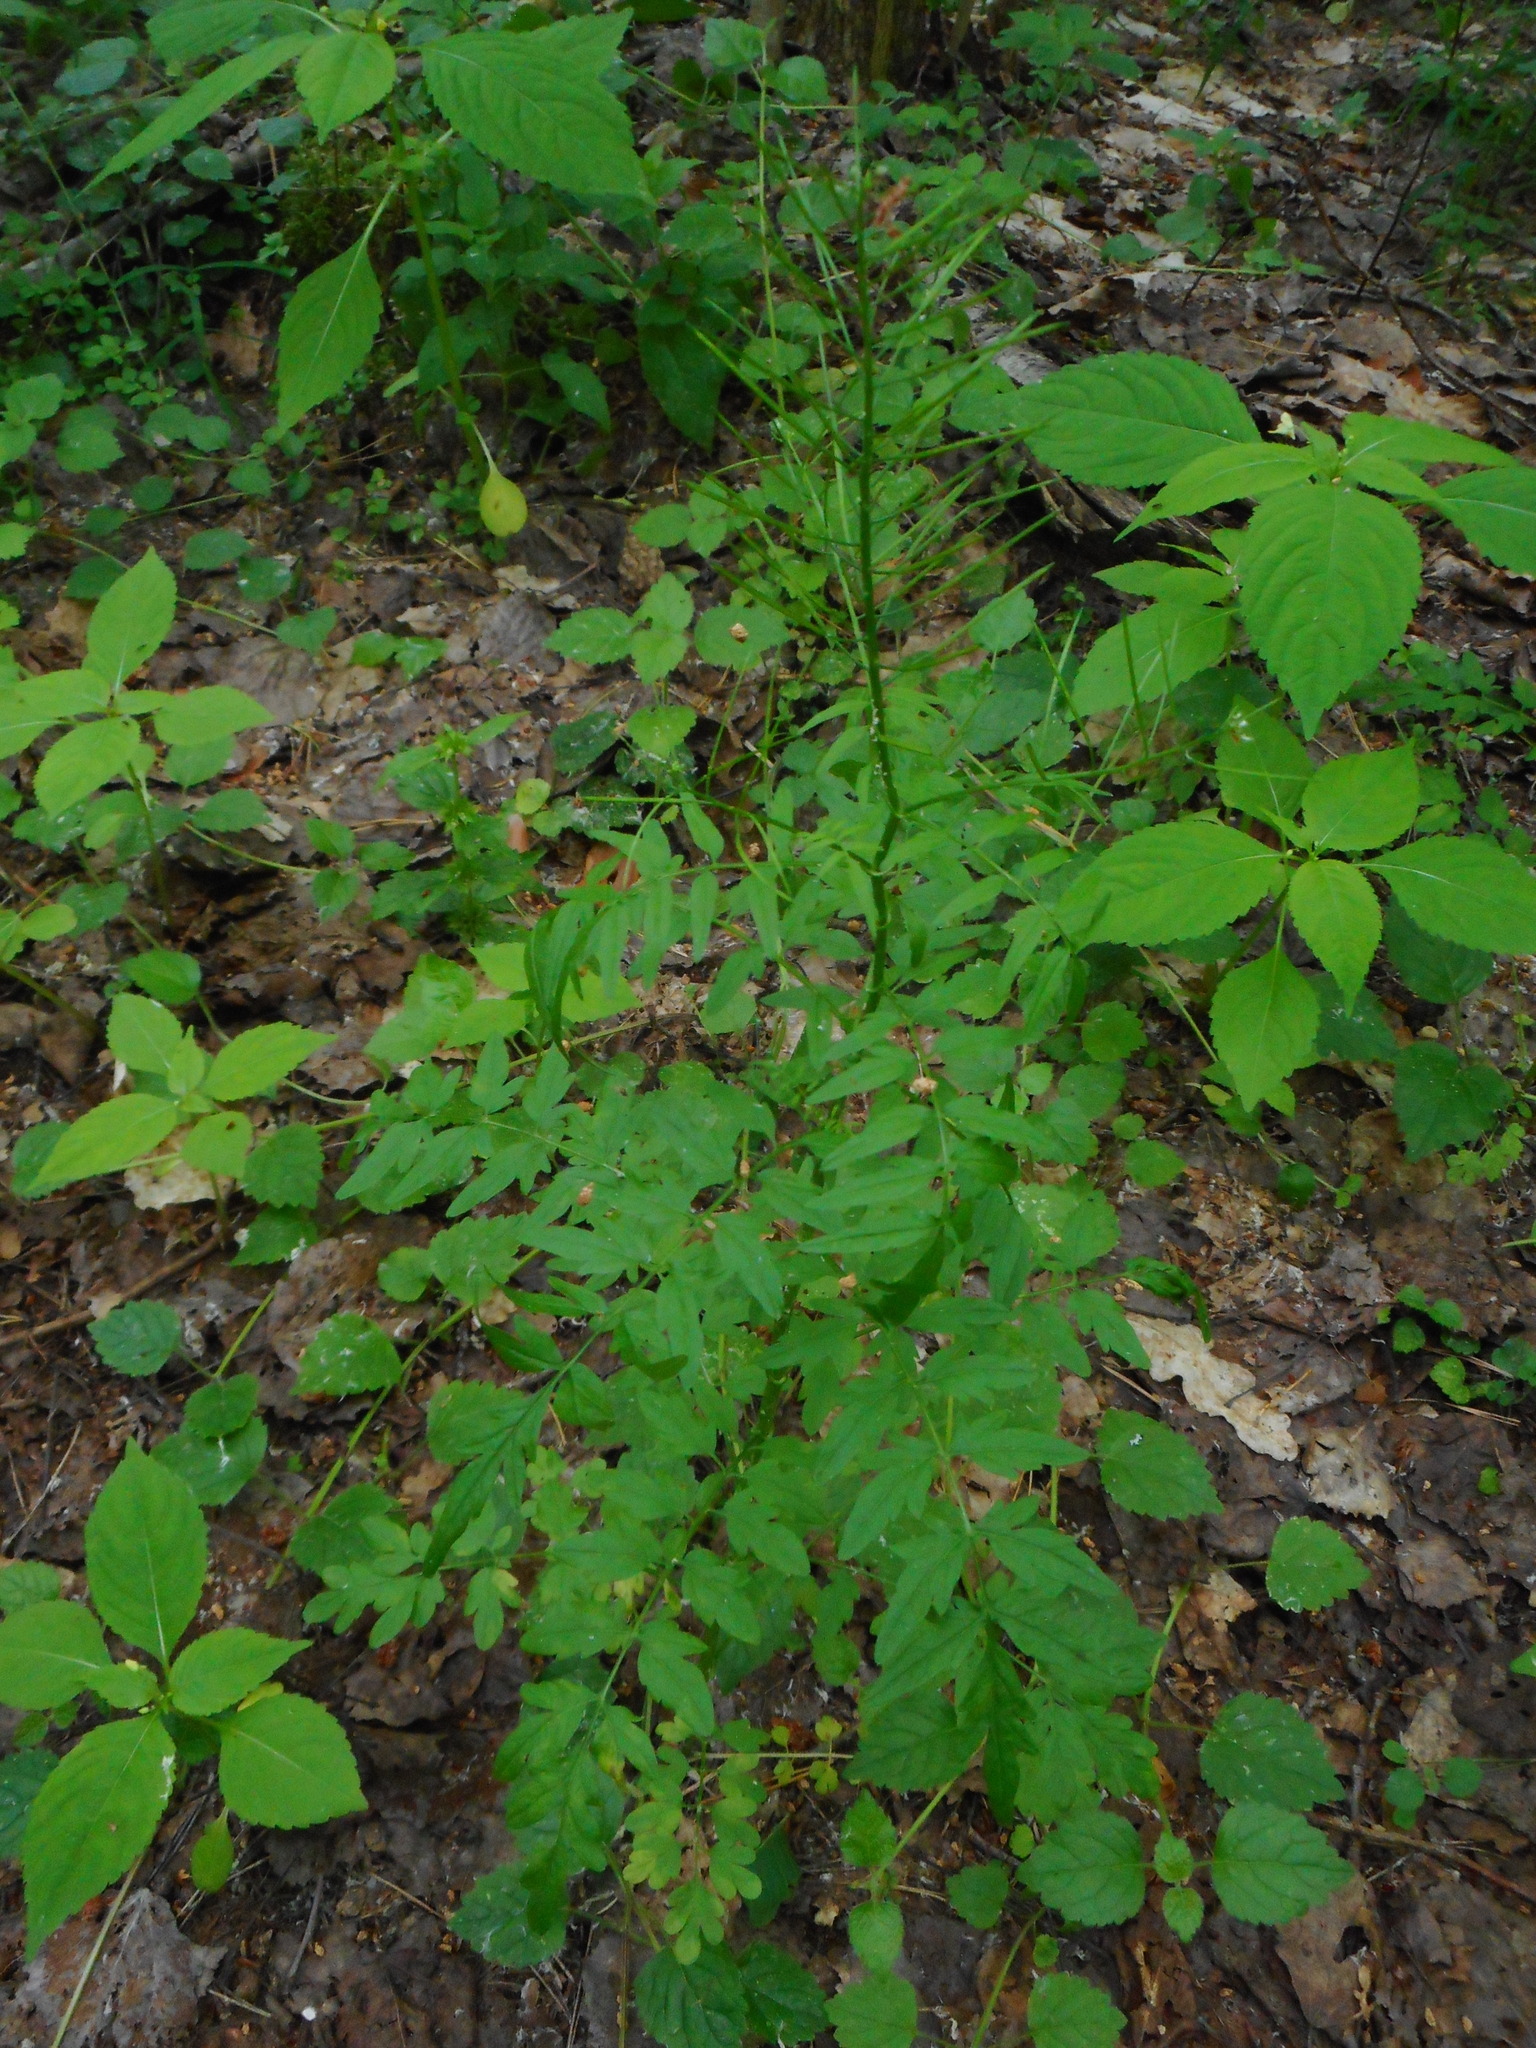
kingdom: Plantae
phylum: Tracheophyta
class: Magnoliopsida
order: Brassicales
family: Brassicaceae
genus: Cardamine
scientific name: Cardamine impatiens
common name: Narrow-leaved bitter-cress
